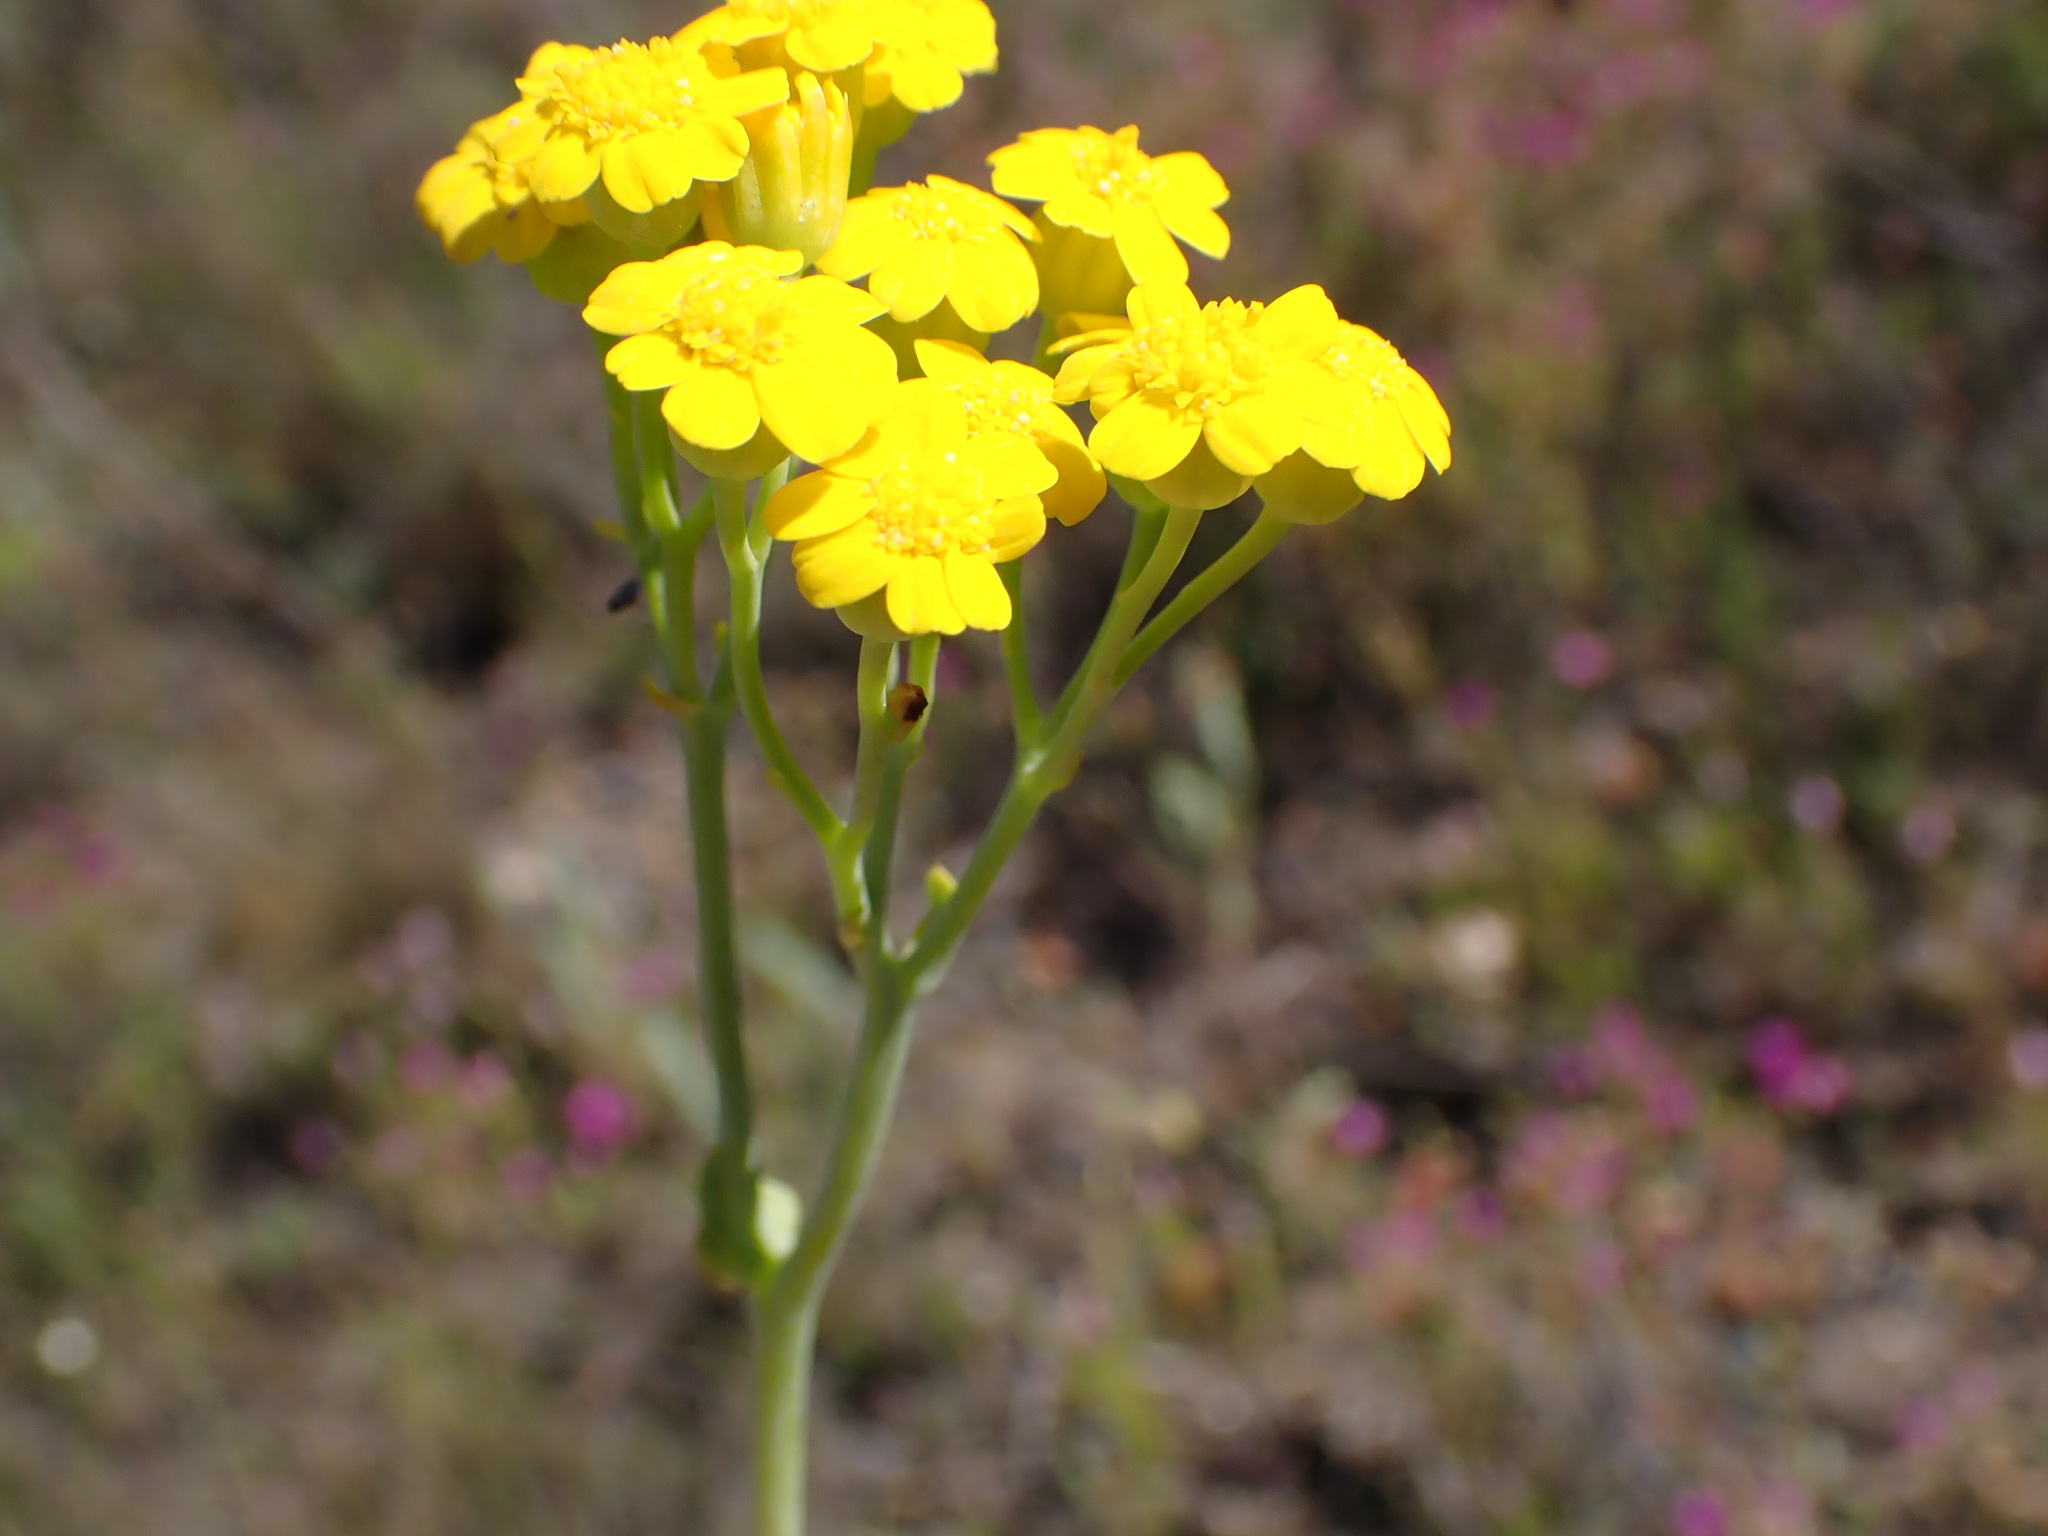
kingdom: Plantae
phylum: Tracheophyta
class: Magnoliopsida
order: Asterales
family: Asteraceae
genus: Othonna
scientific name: Othonna parviflora
